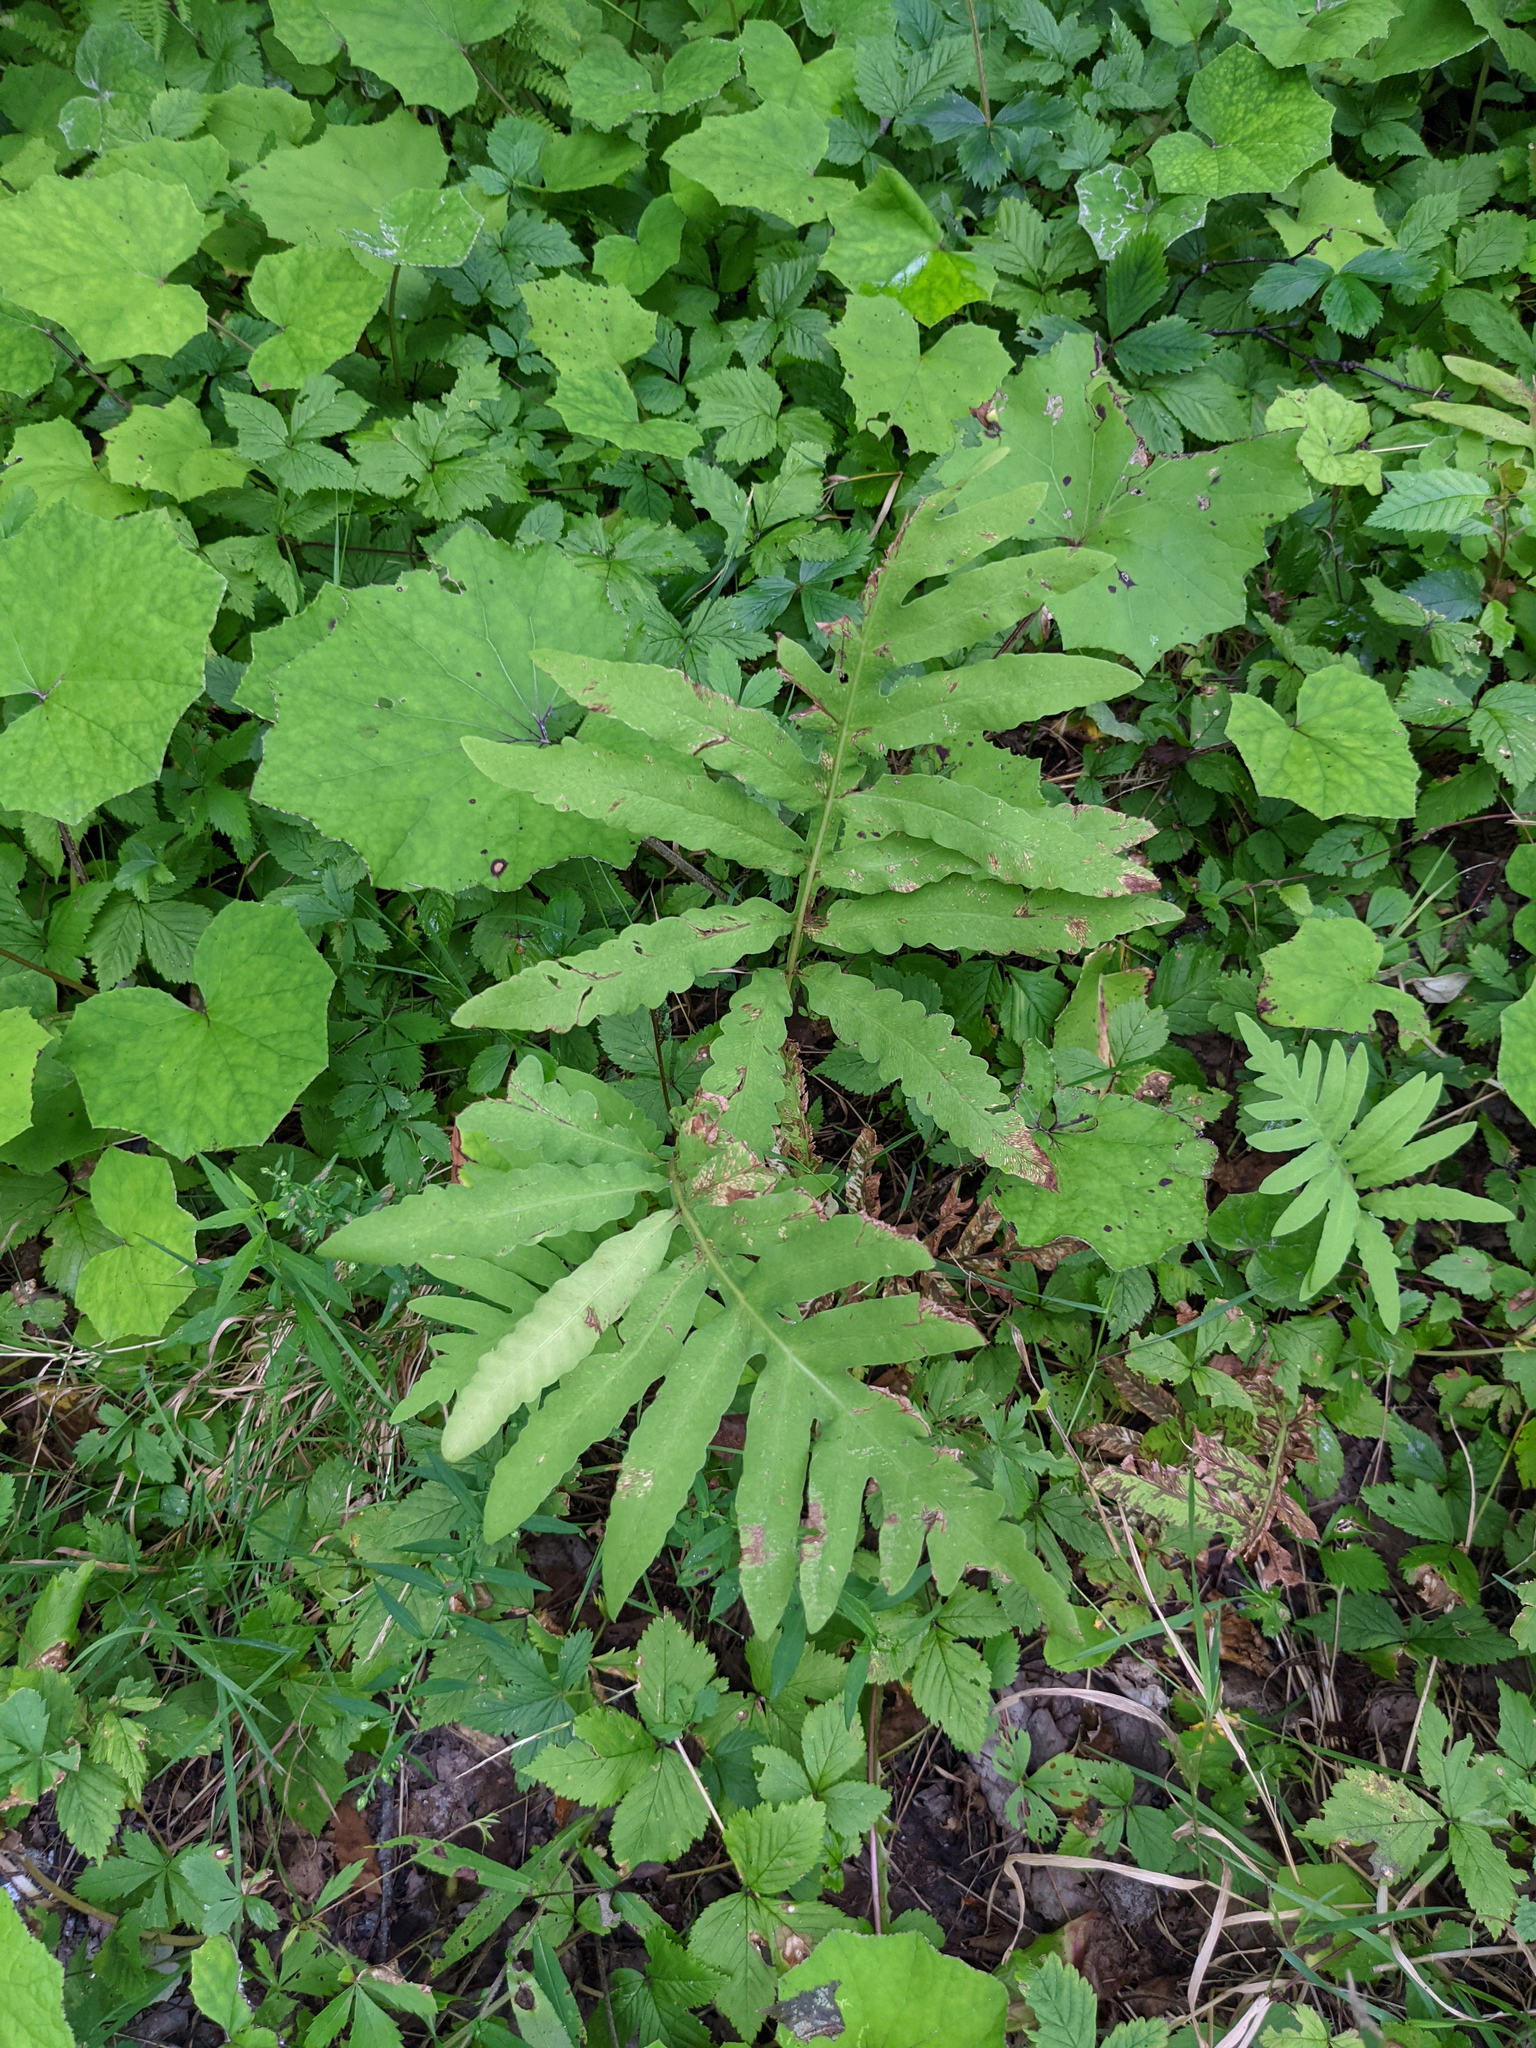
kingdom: Plantae
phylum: Tracheophyta
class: Polypodiopsida
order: Polypodiales
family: Onocleaceae
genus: Onoclea
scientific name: Onoclea sensibilis
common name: Sensitive fern
